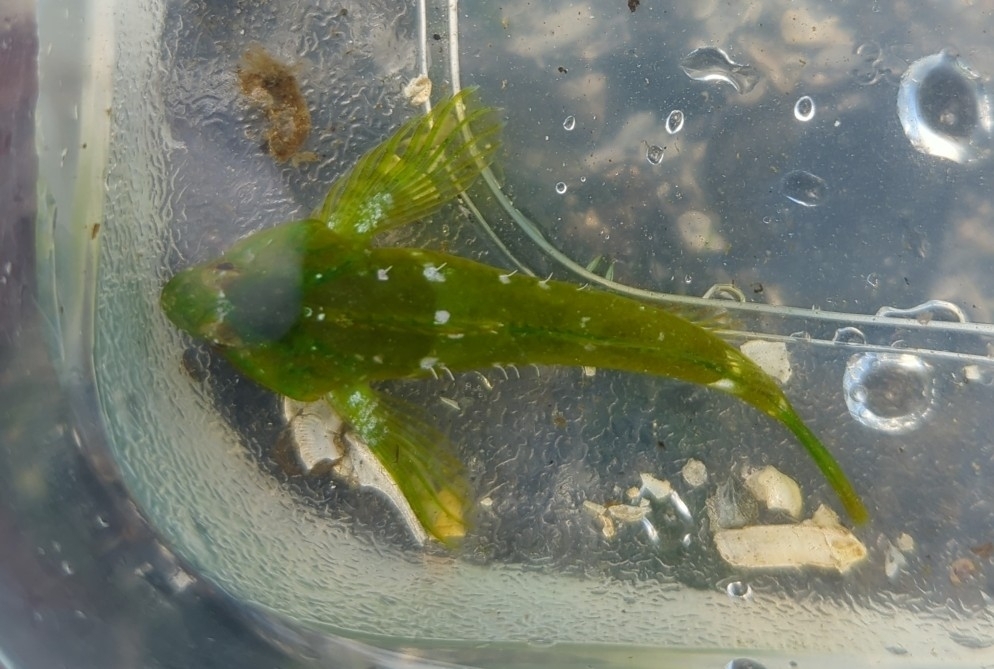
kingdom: Animalia
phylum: Chordata
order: Scorpaeniformes
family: Cottidae
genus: Oligocottus
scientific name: Oligocottus maculosus
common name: Tidepool sculpin
